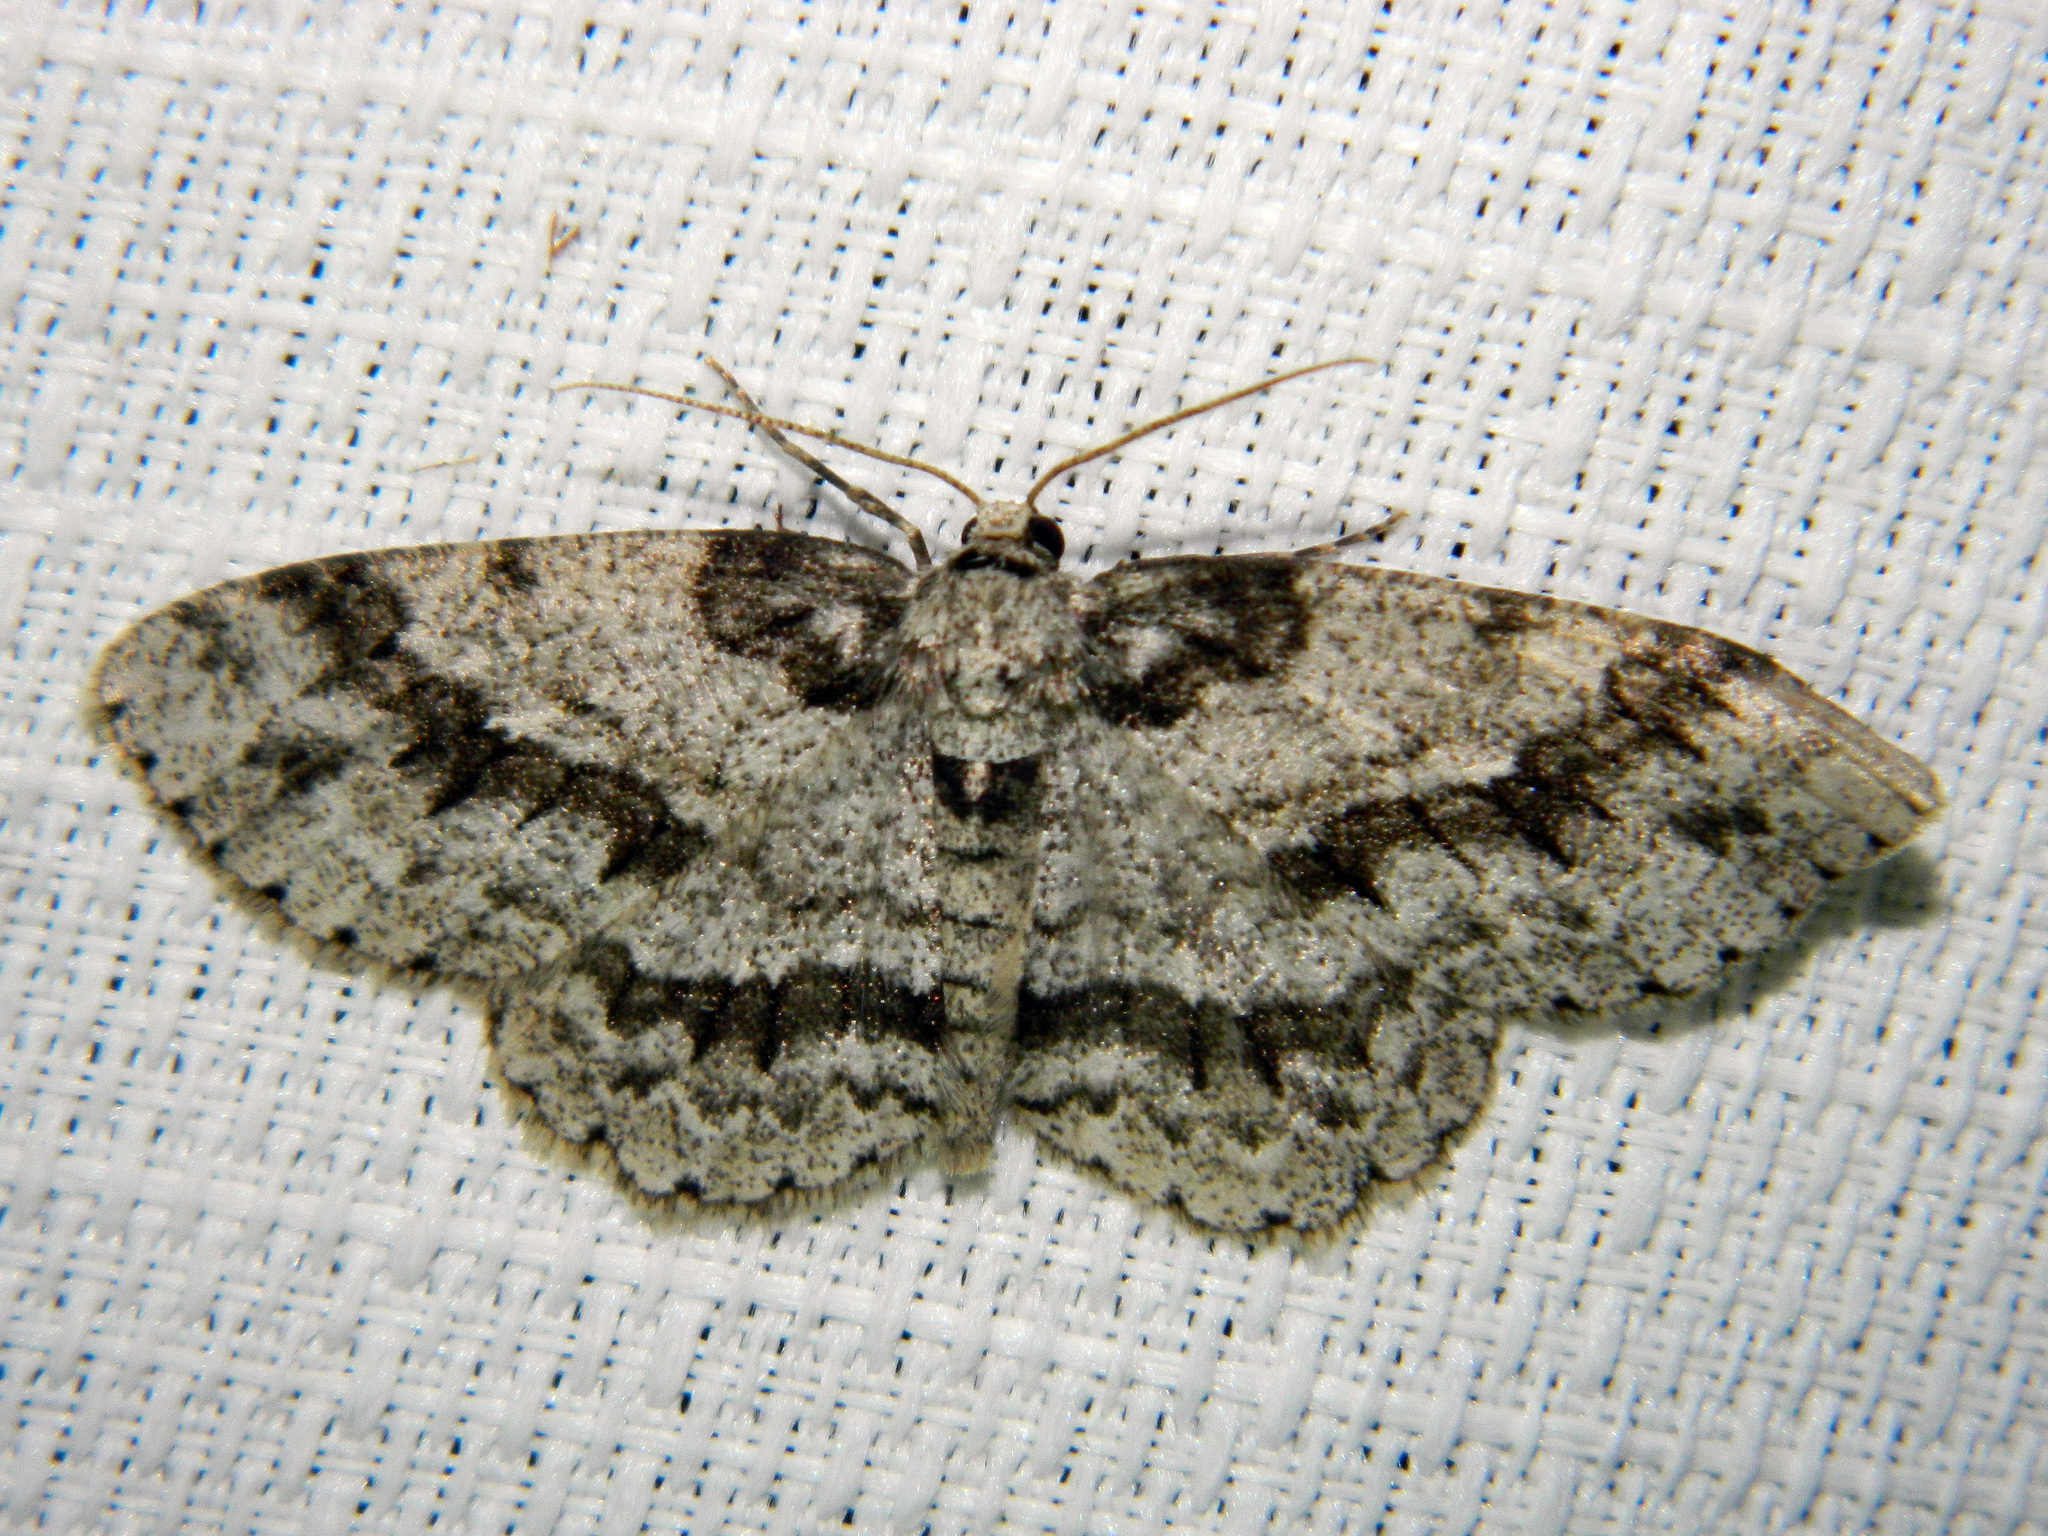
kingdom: Animalia
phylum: Arthropoda
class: Insecta
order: Lepidoptera
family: Geometridae
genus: Ectropis
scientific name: Ectropis crepuscularia
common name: Engrailed
